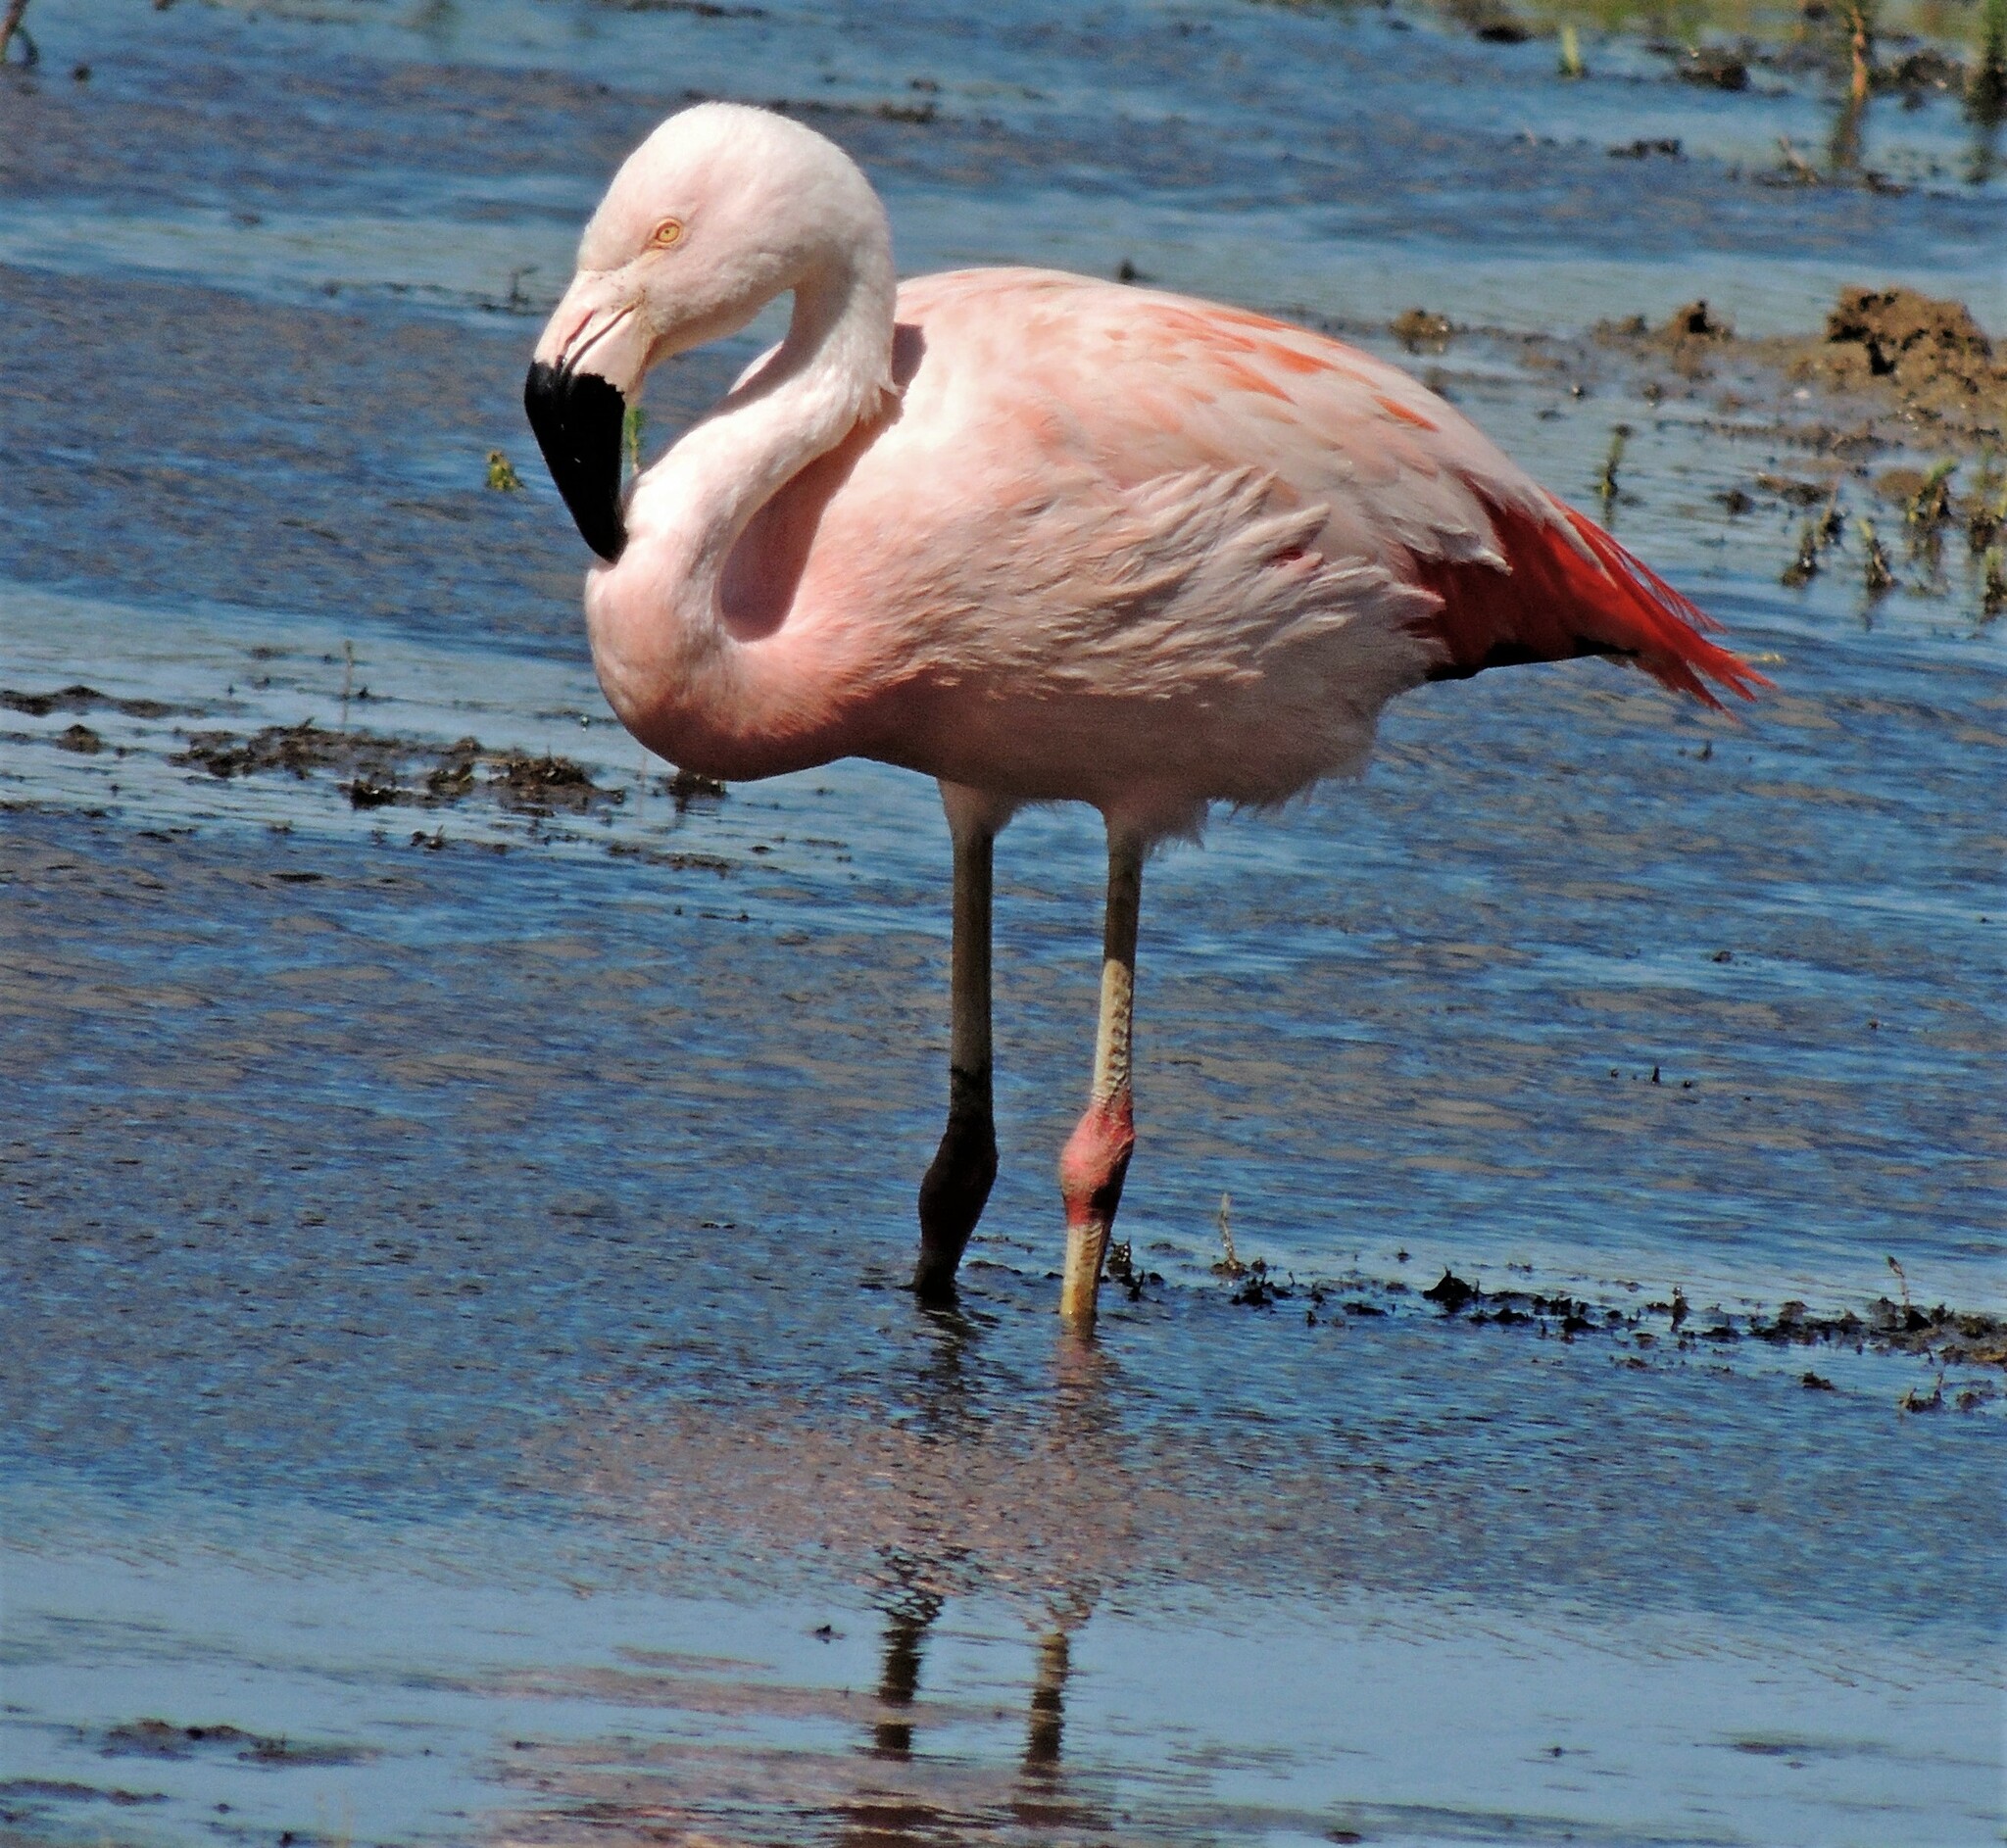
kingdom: Animalia
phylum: Chordata
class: Aves
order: Phoenicopteriformes
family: Phoenicopteridae
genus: Phoenicopterus
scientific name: Phoenicopterus chilensis
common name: Chilean flamingo
